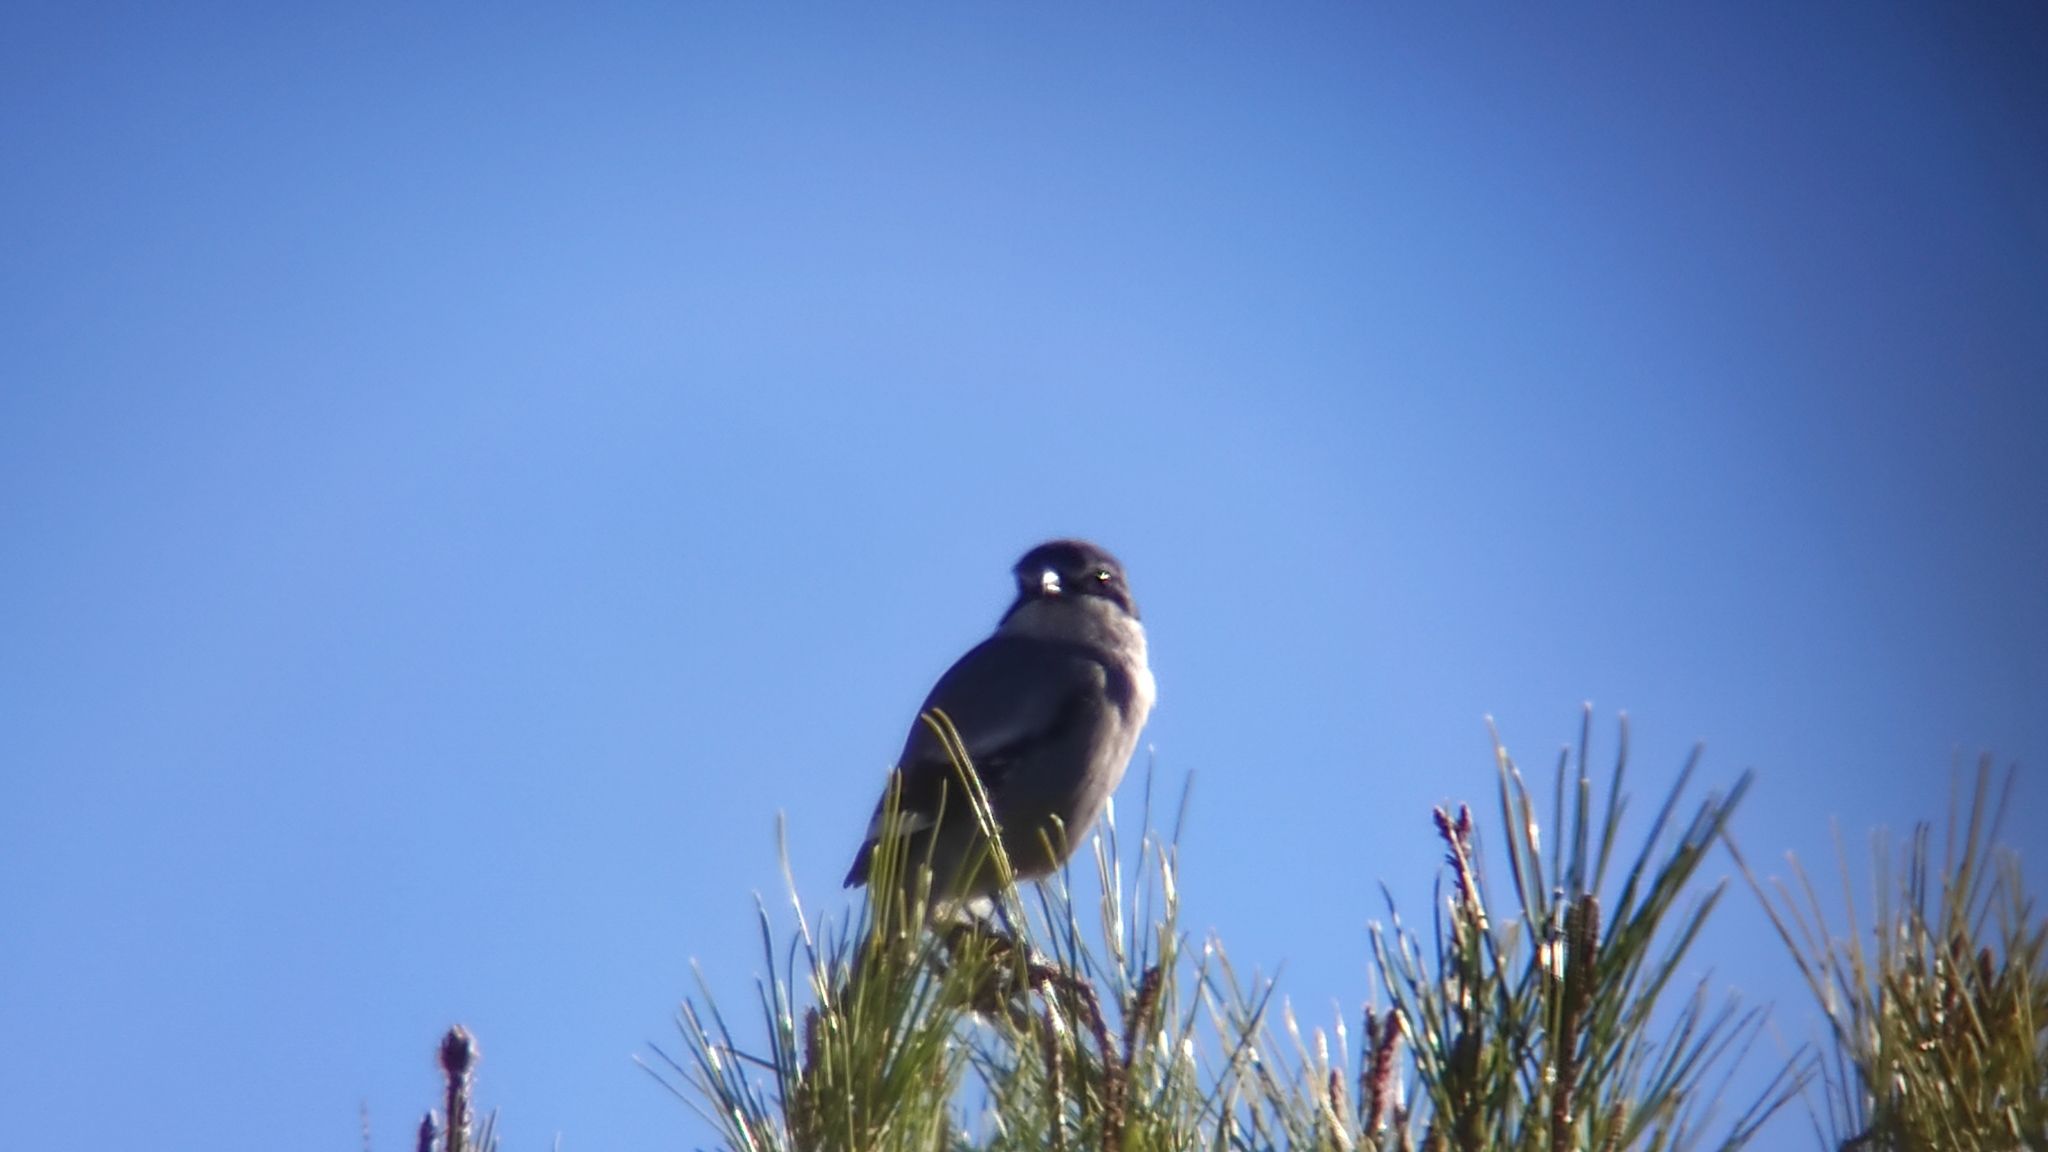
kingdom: Animalia
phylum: Chordata
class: Aves
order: Passeriformes
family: Laniidae
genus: Lanius
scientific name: Lanius meridionalis
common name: Iberian grey shrike
